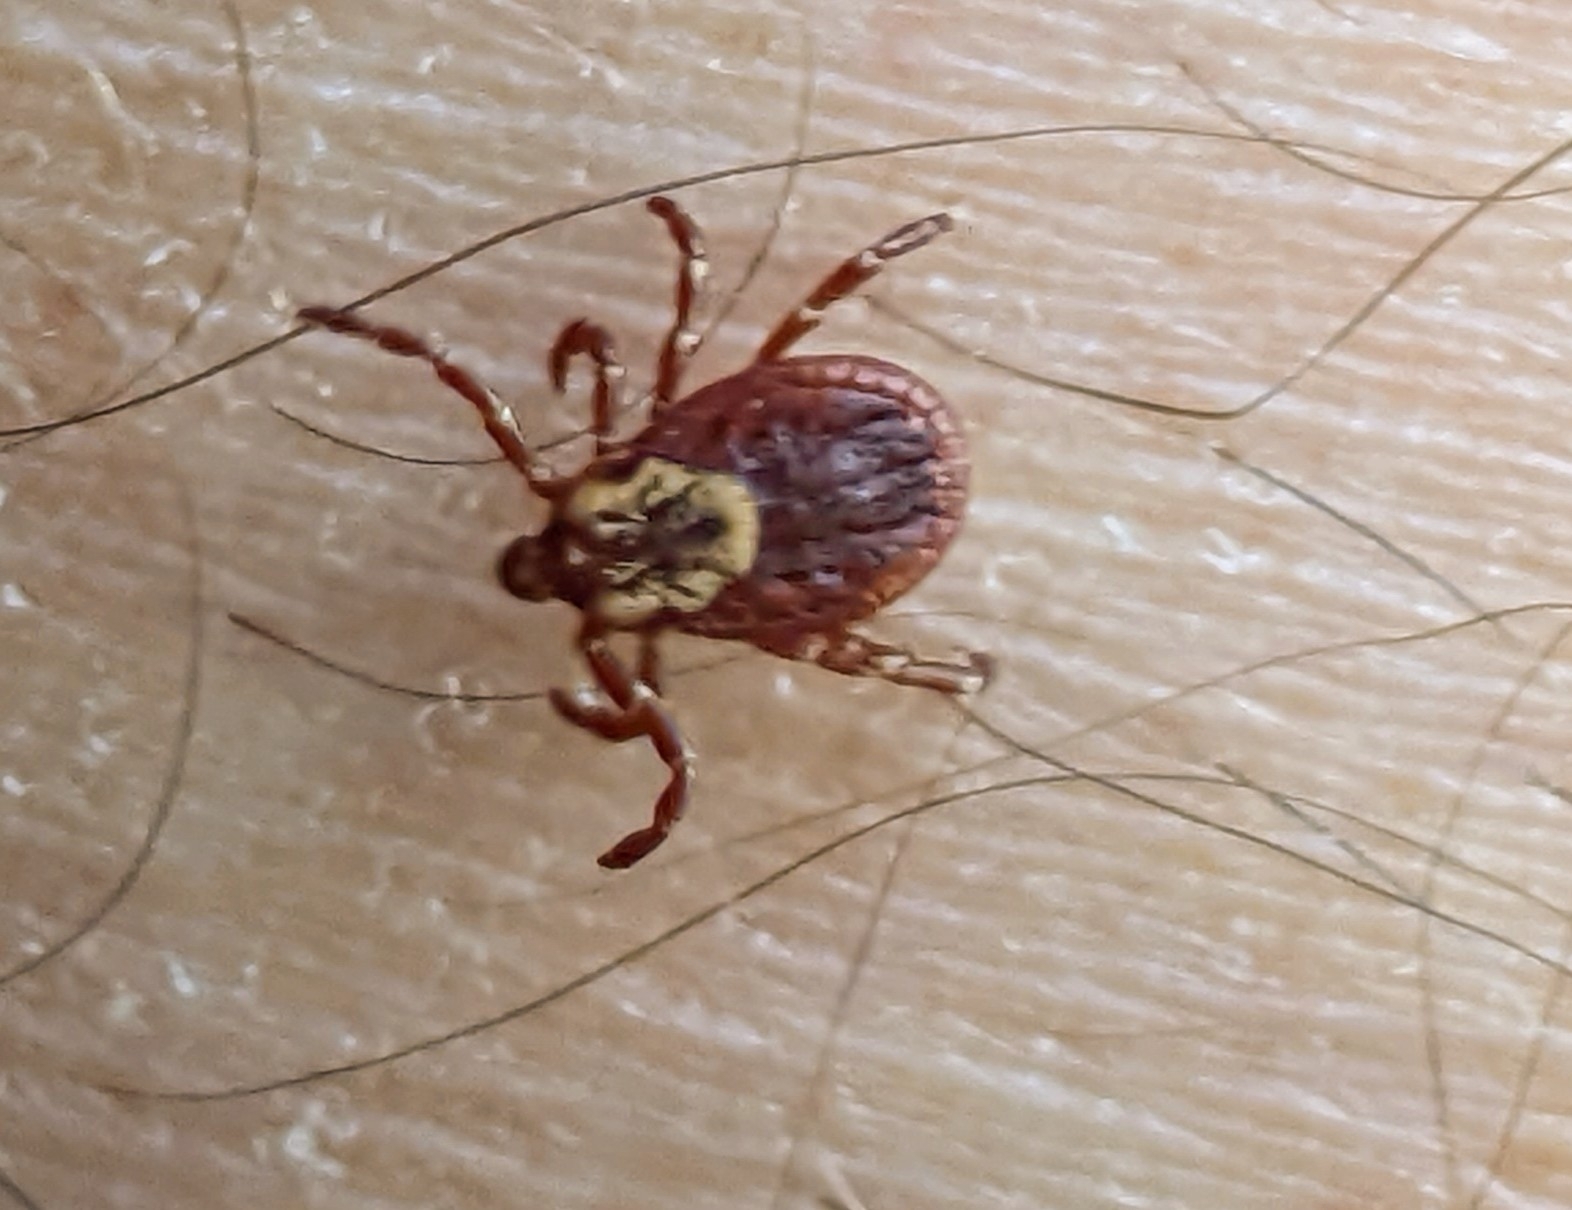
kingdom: Animalia
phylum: Arthropoda
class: Arachnida
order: Ixodida
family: Ixodidae
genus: Dermacentor
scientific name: Dermacentor variabilis
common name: American dog tick
